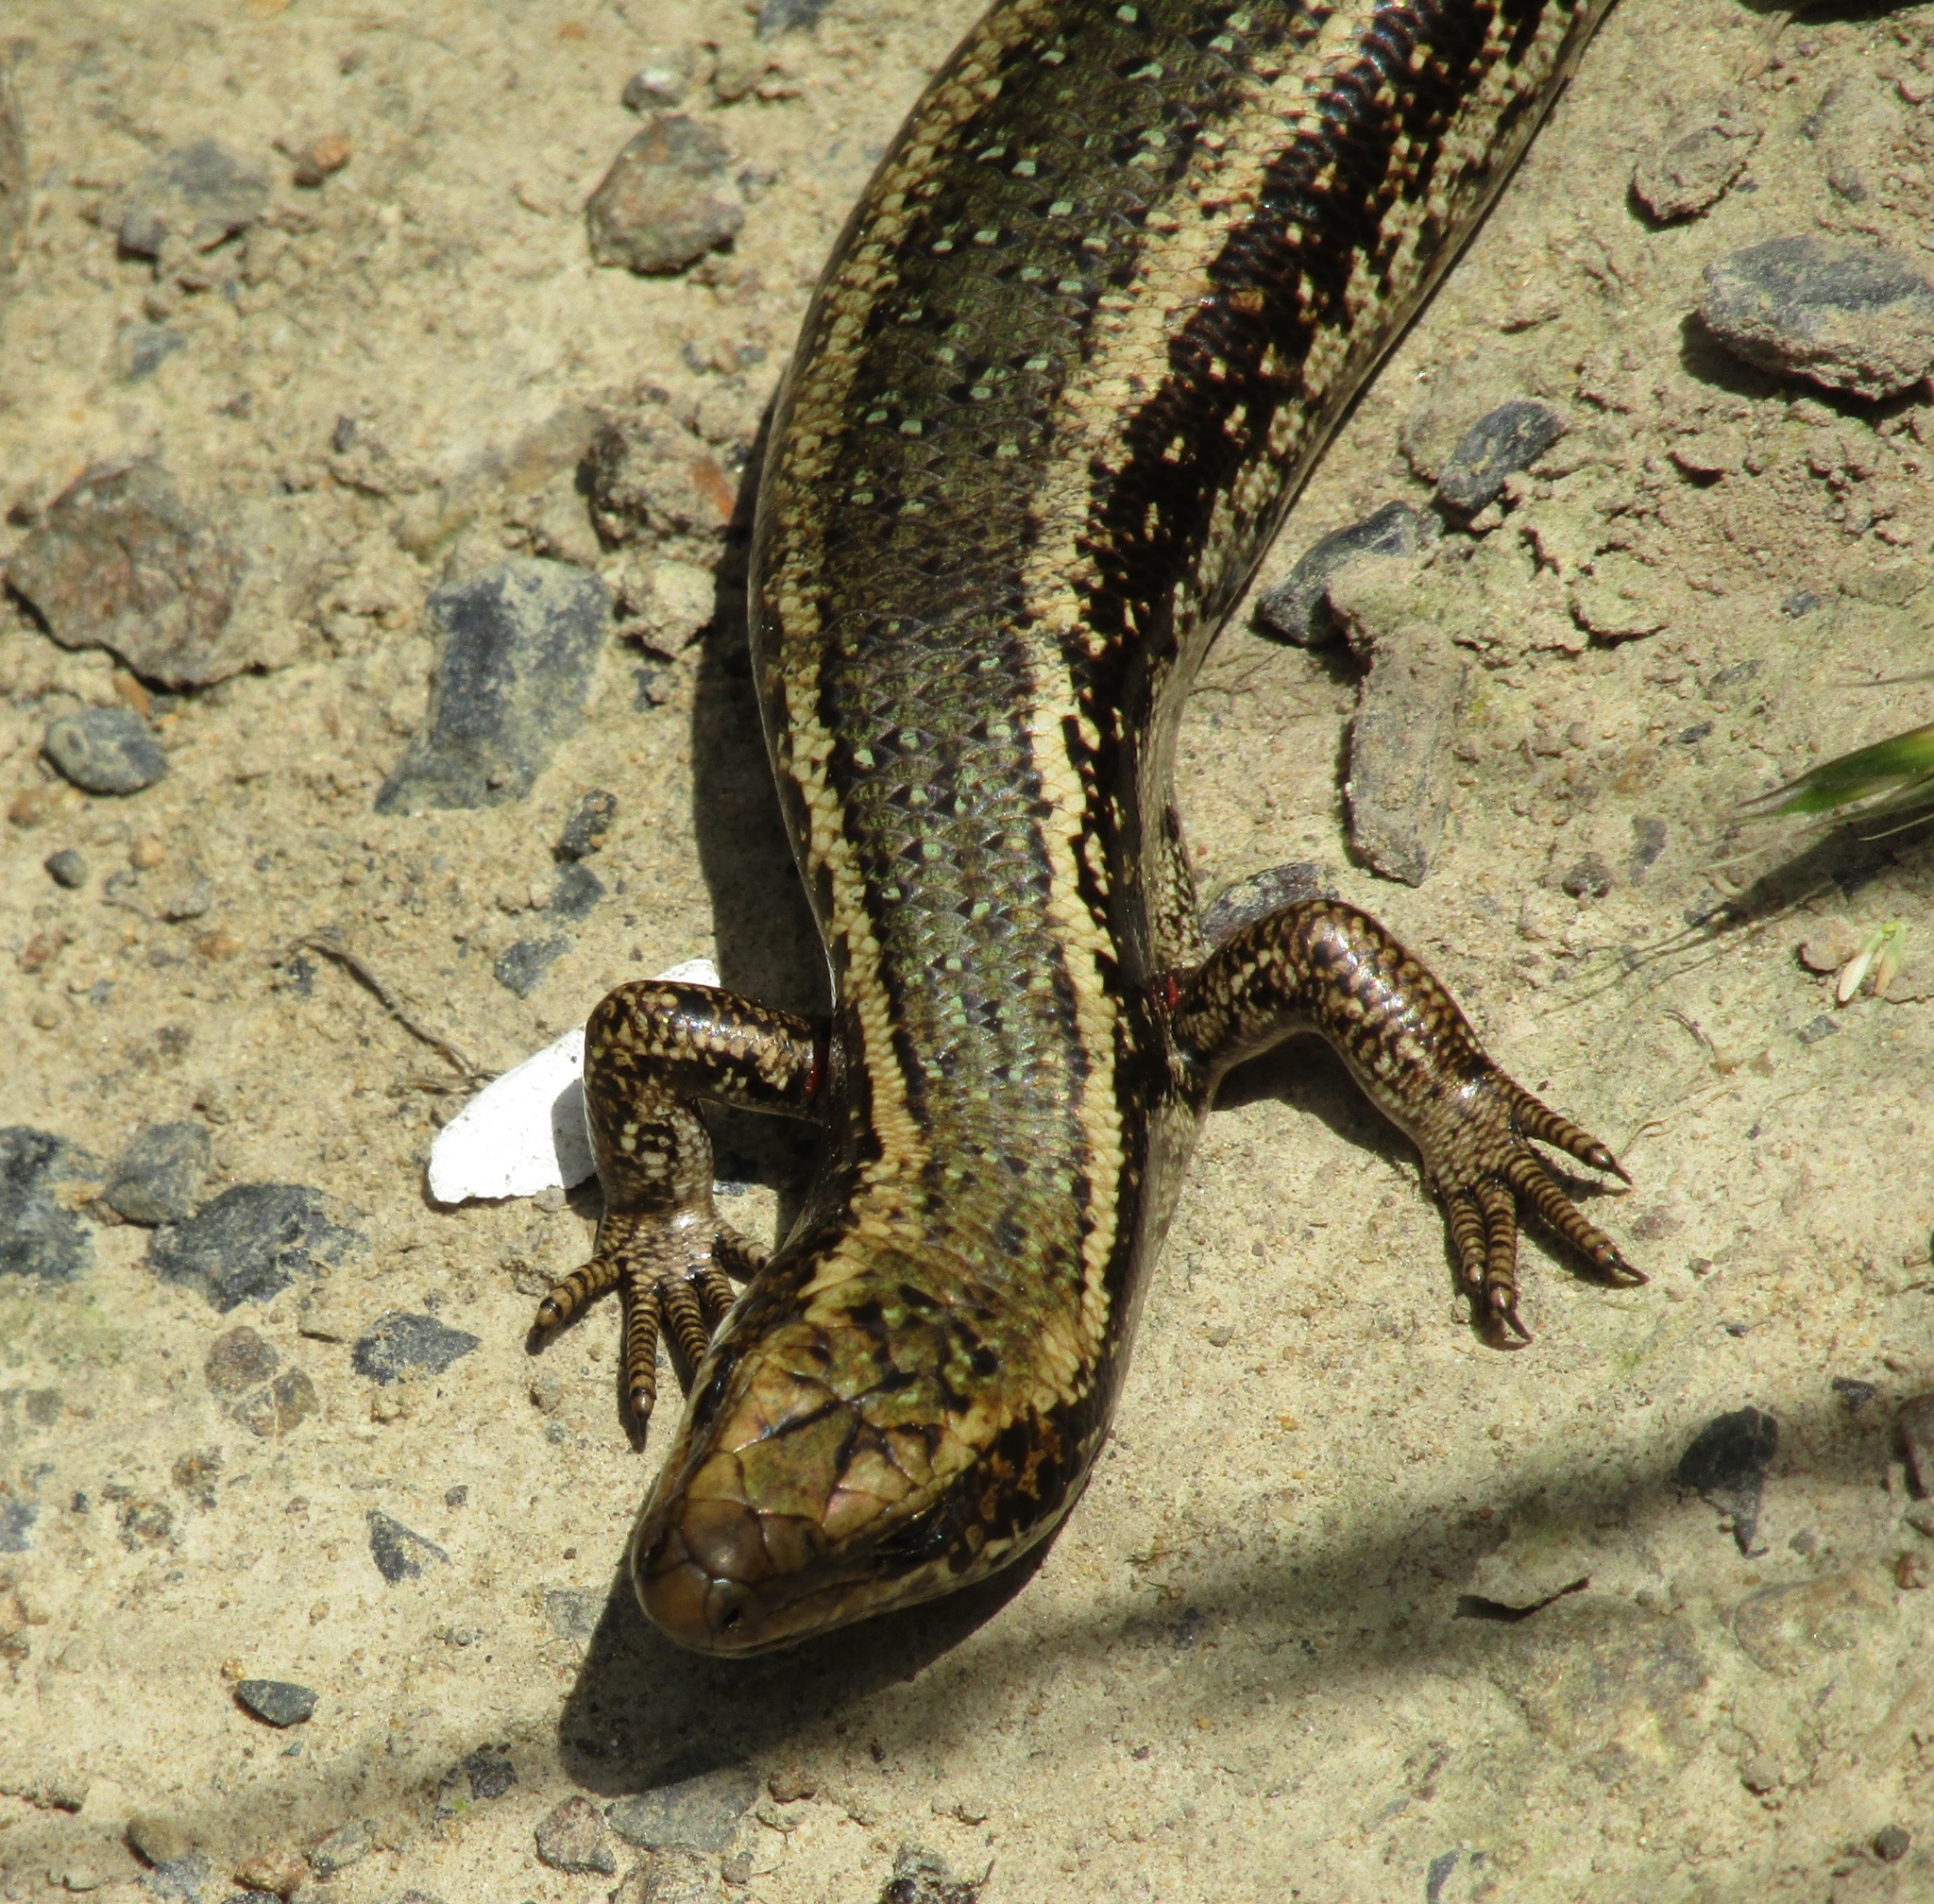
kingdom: Animalia
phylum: Chordata
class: Squamata
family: Scincidae
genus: Oligosoma
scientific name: Oligosoma kokowai
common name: Northern spotted skink
